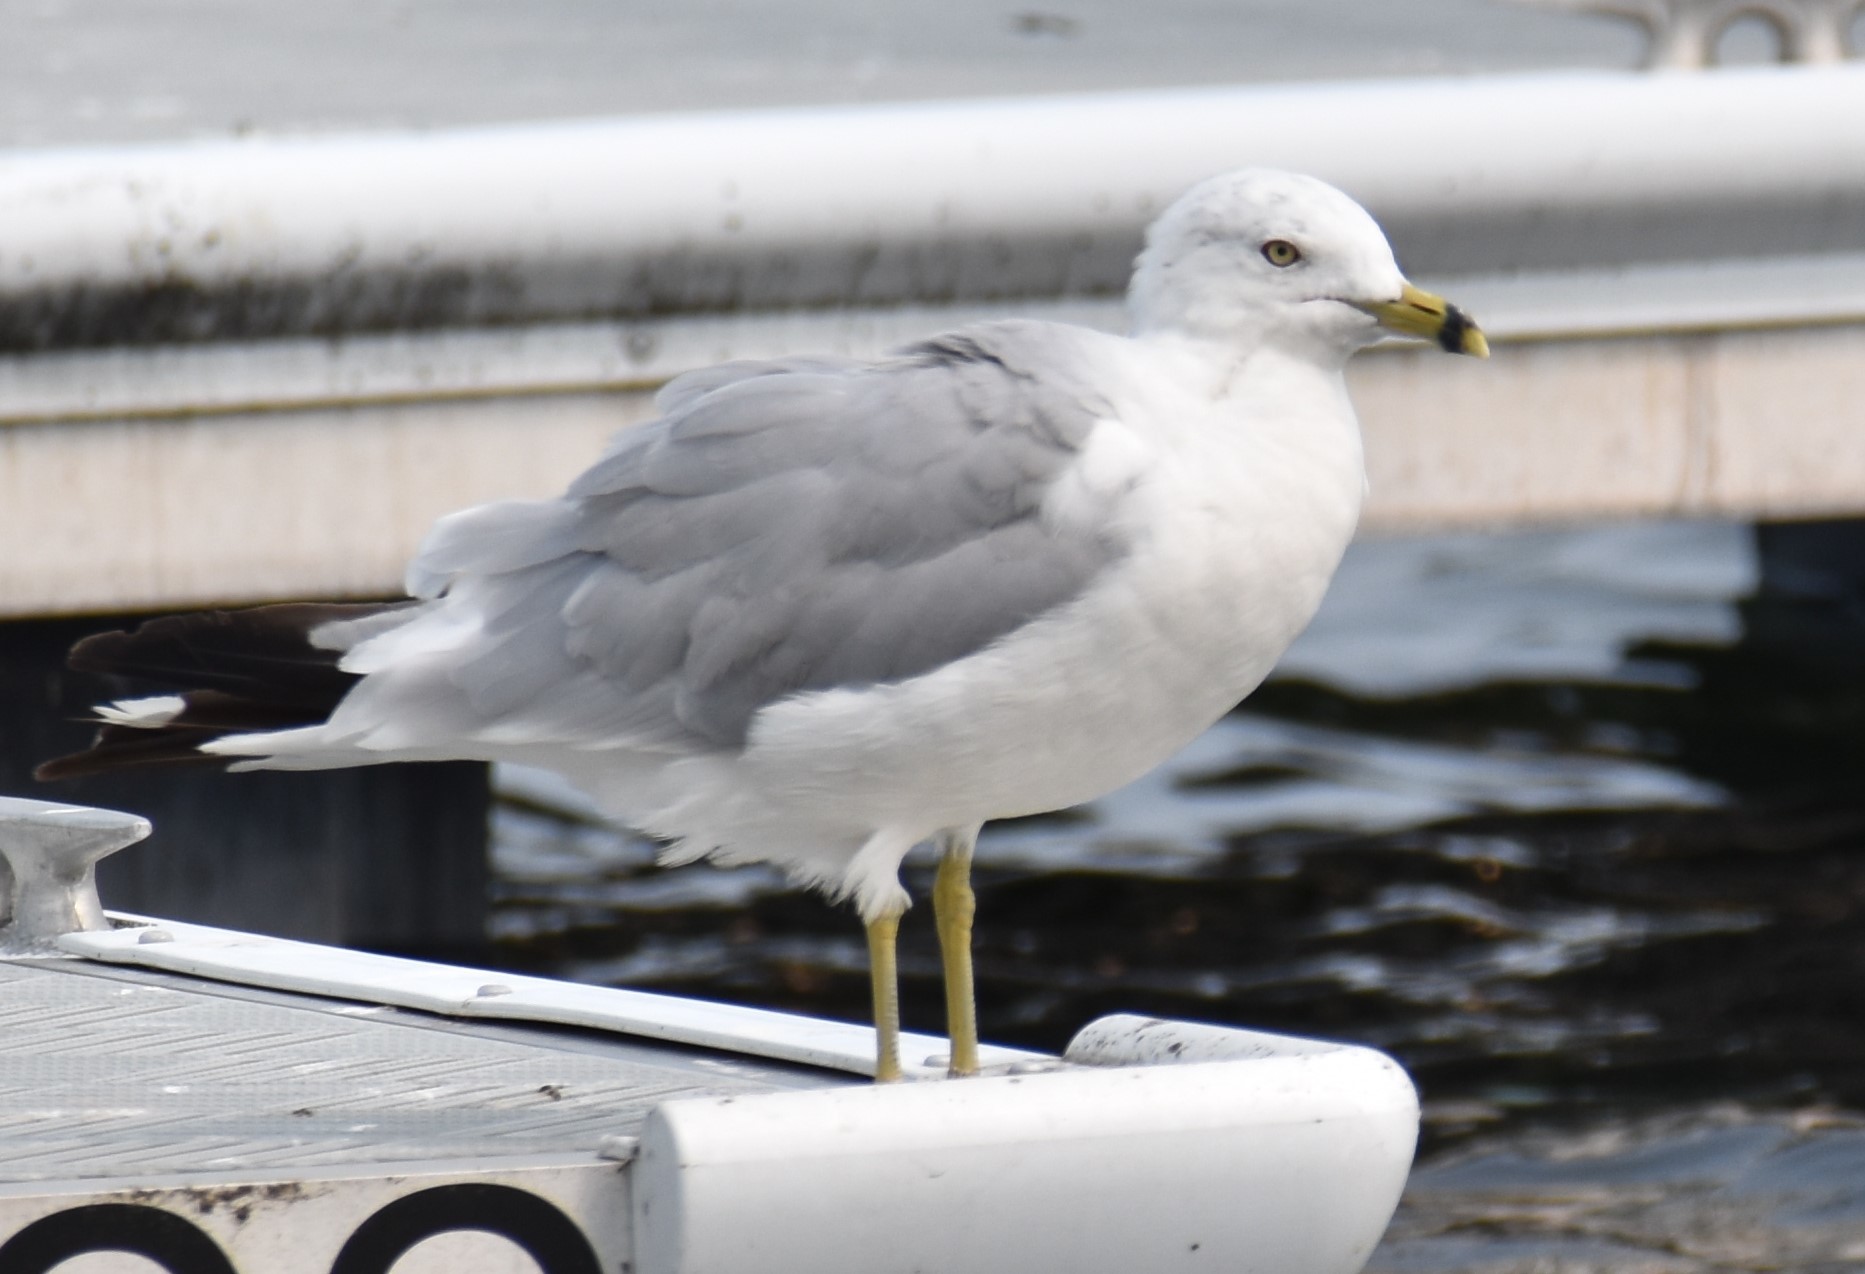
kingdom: Animalia
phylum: Chordata
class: Aves
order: Charadriiformes
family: Laridae
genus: Larus
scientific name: Larus delawarensis
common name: Ring-billed gull
